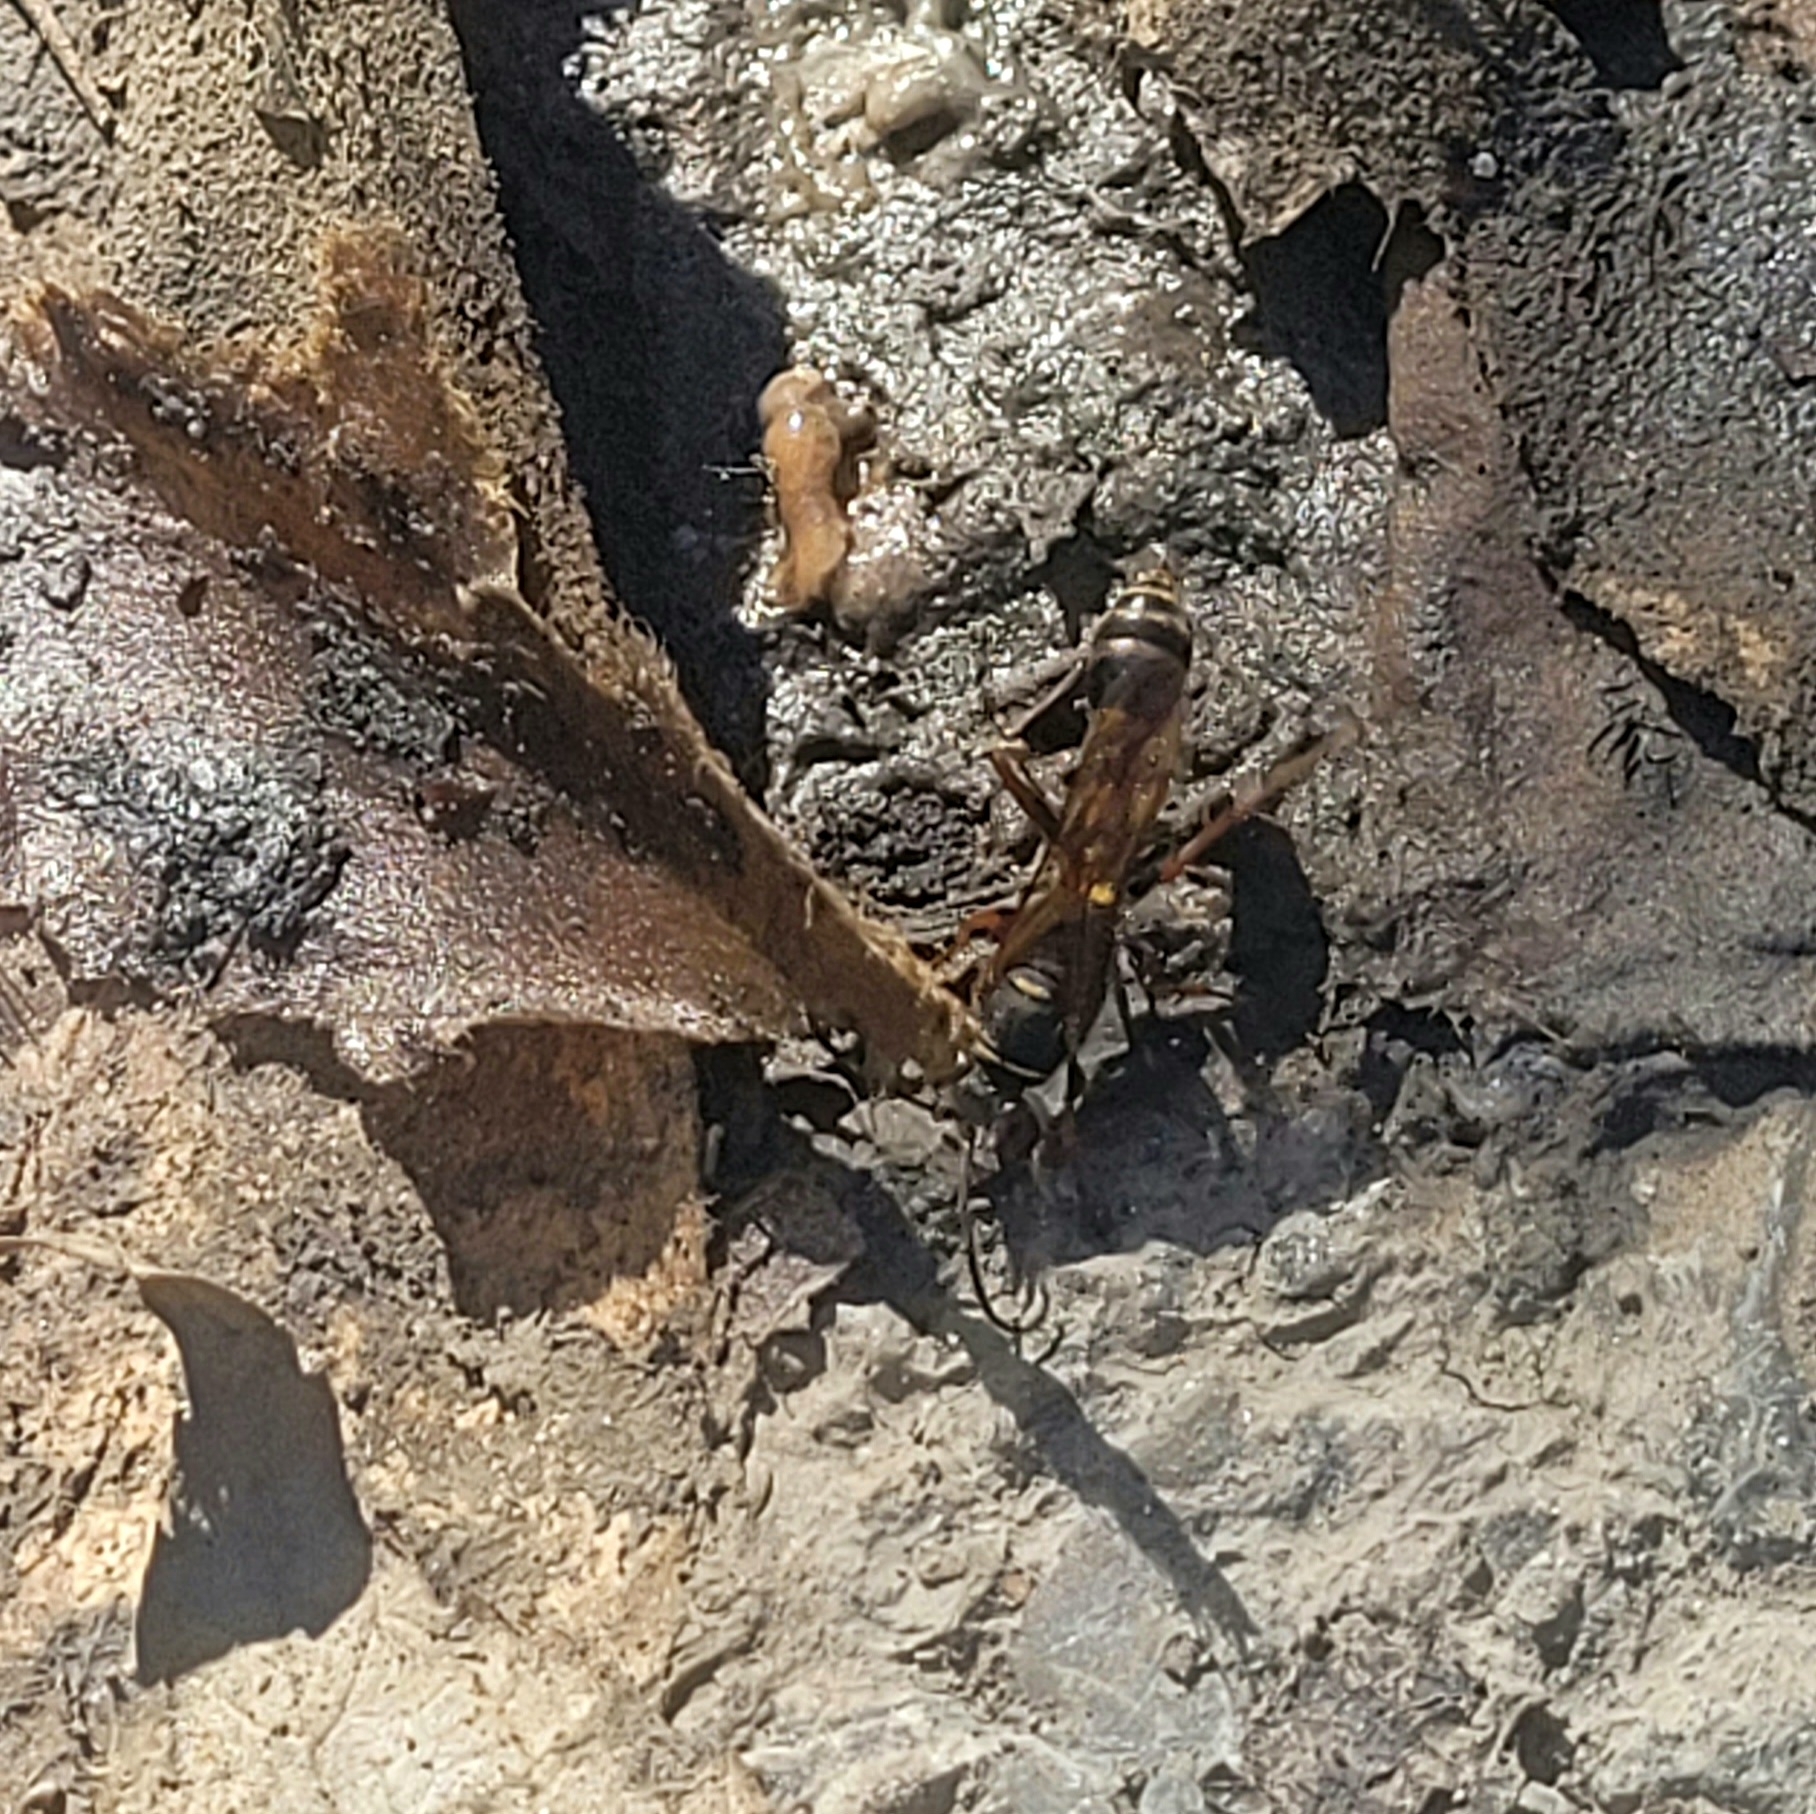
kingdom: Animalia
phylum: Arthropoda
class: Insecta
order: Hymenoptera
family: Sphecidae
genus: Sceliphron
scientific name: Sceliphron curvatum
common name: Pèlopèe
